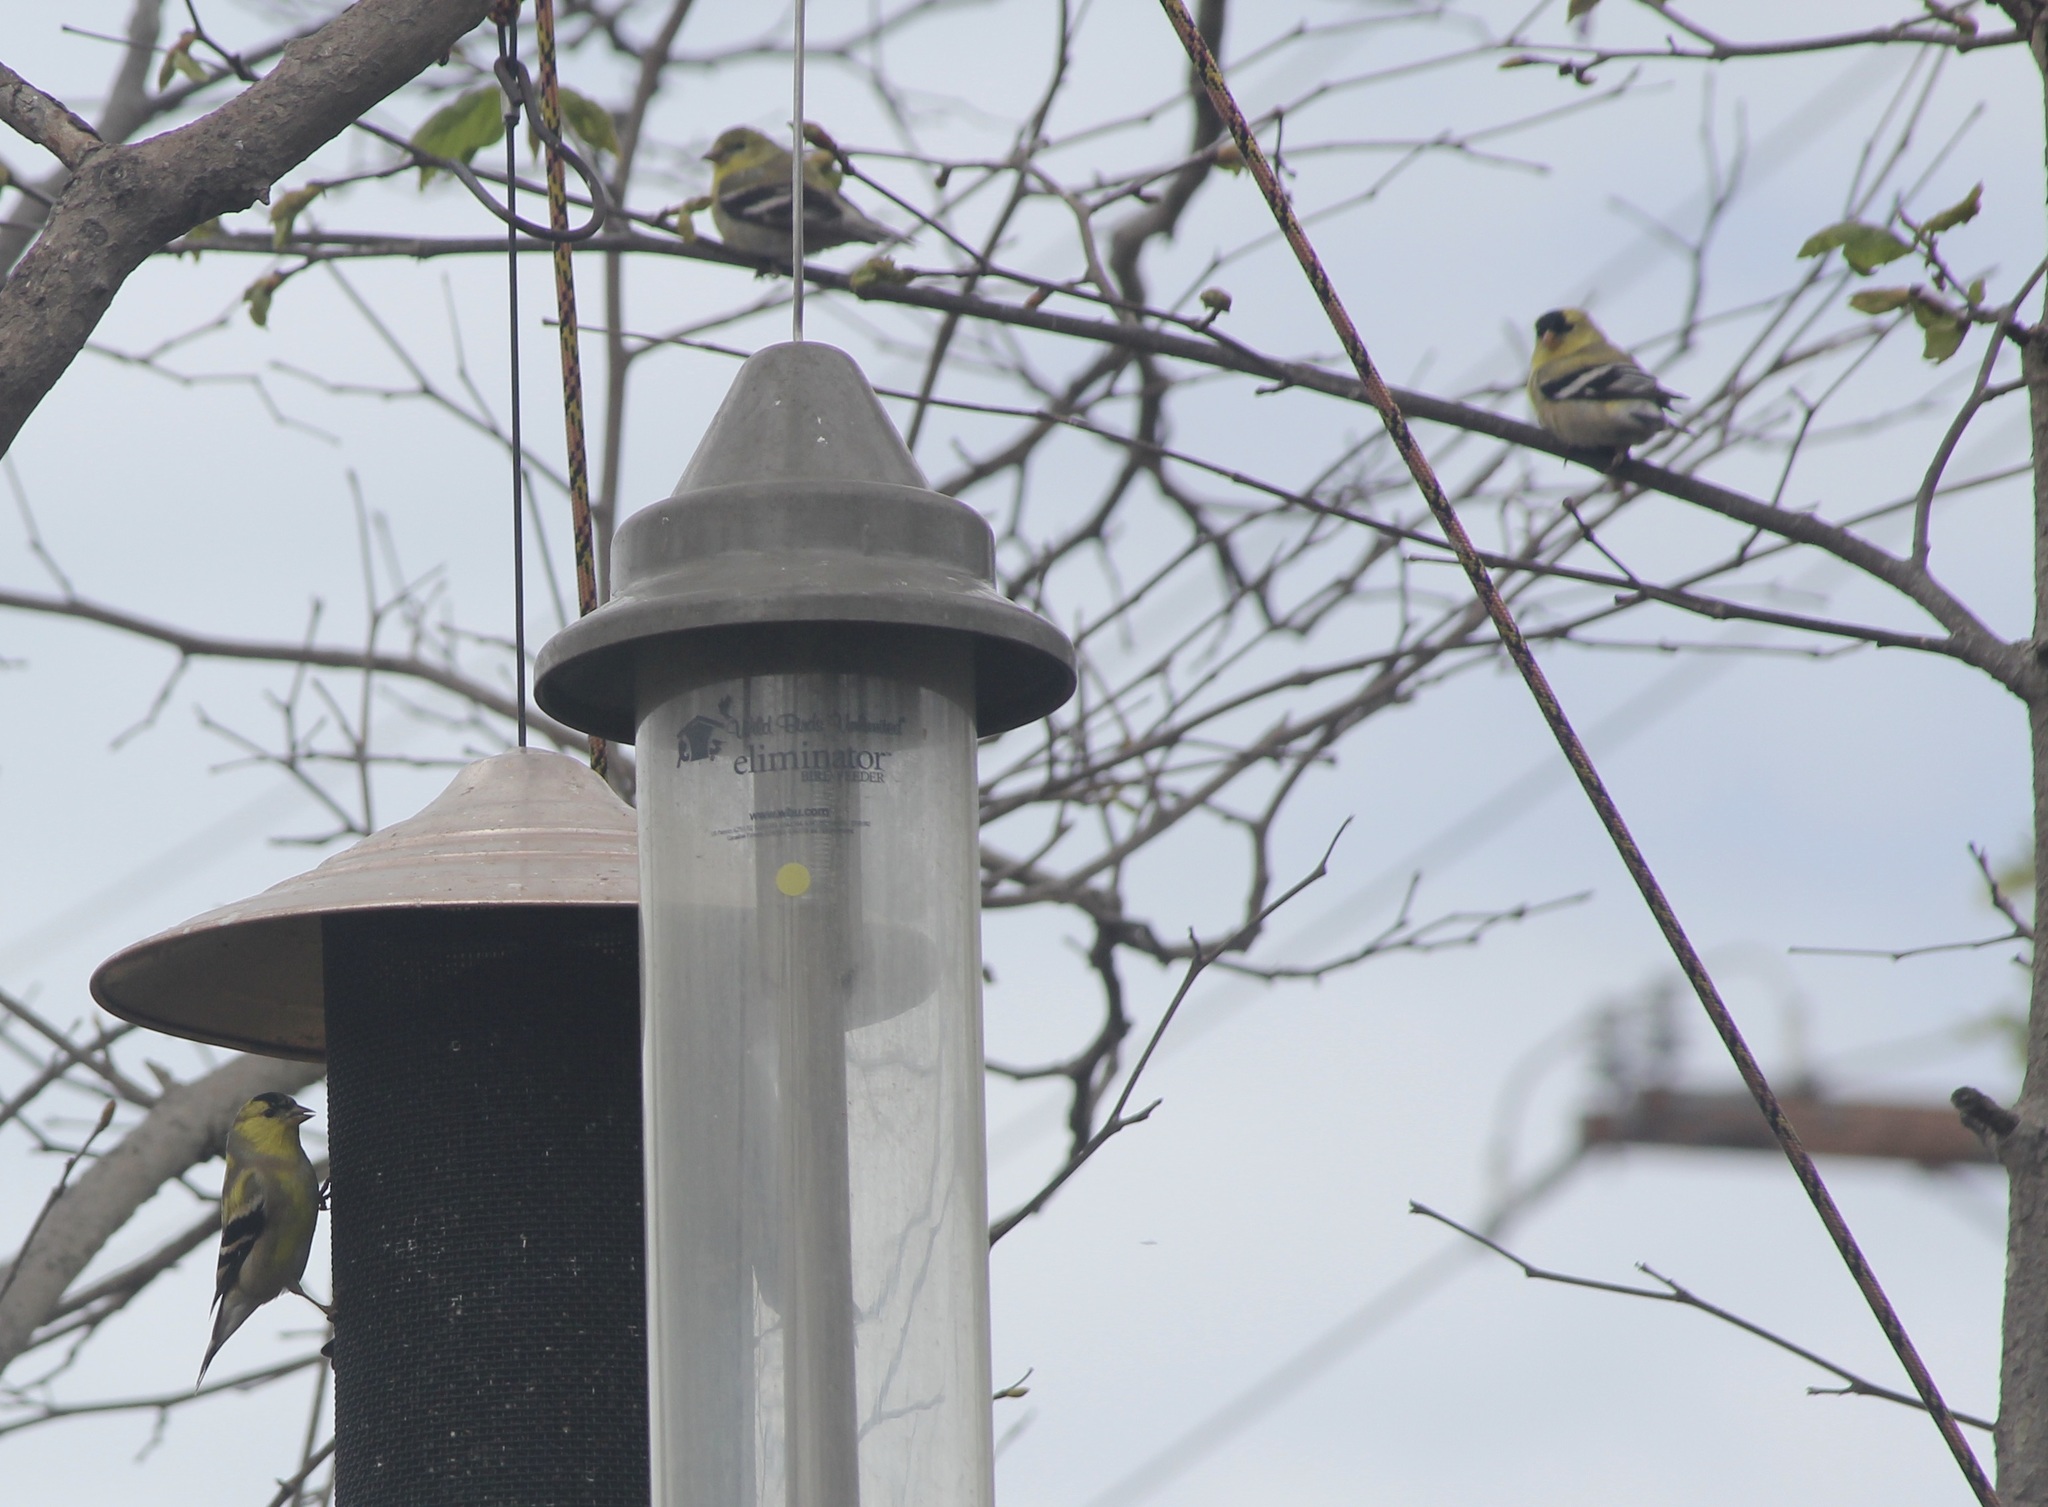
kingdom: Animalia
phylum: Chordata
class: Aves
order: Passeriformes
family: Fringillidae
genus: Spinus
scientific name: Spinus tristis
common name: American goldfinch
